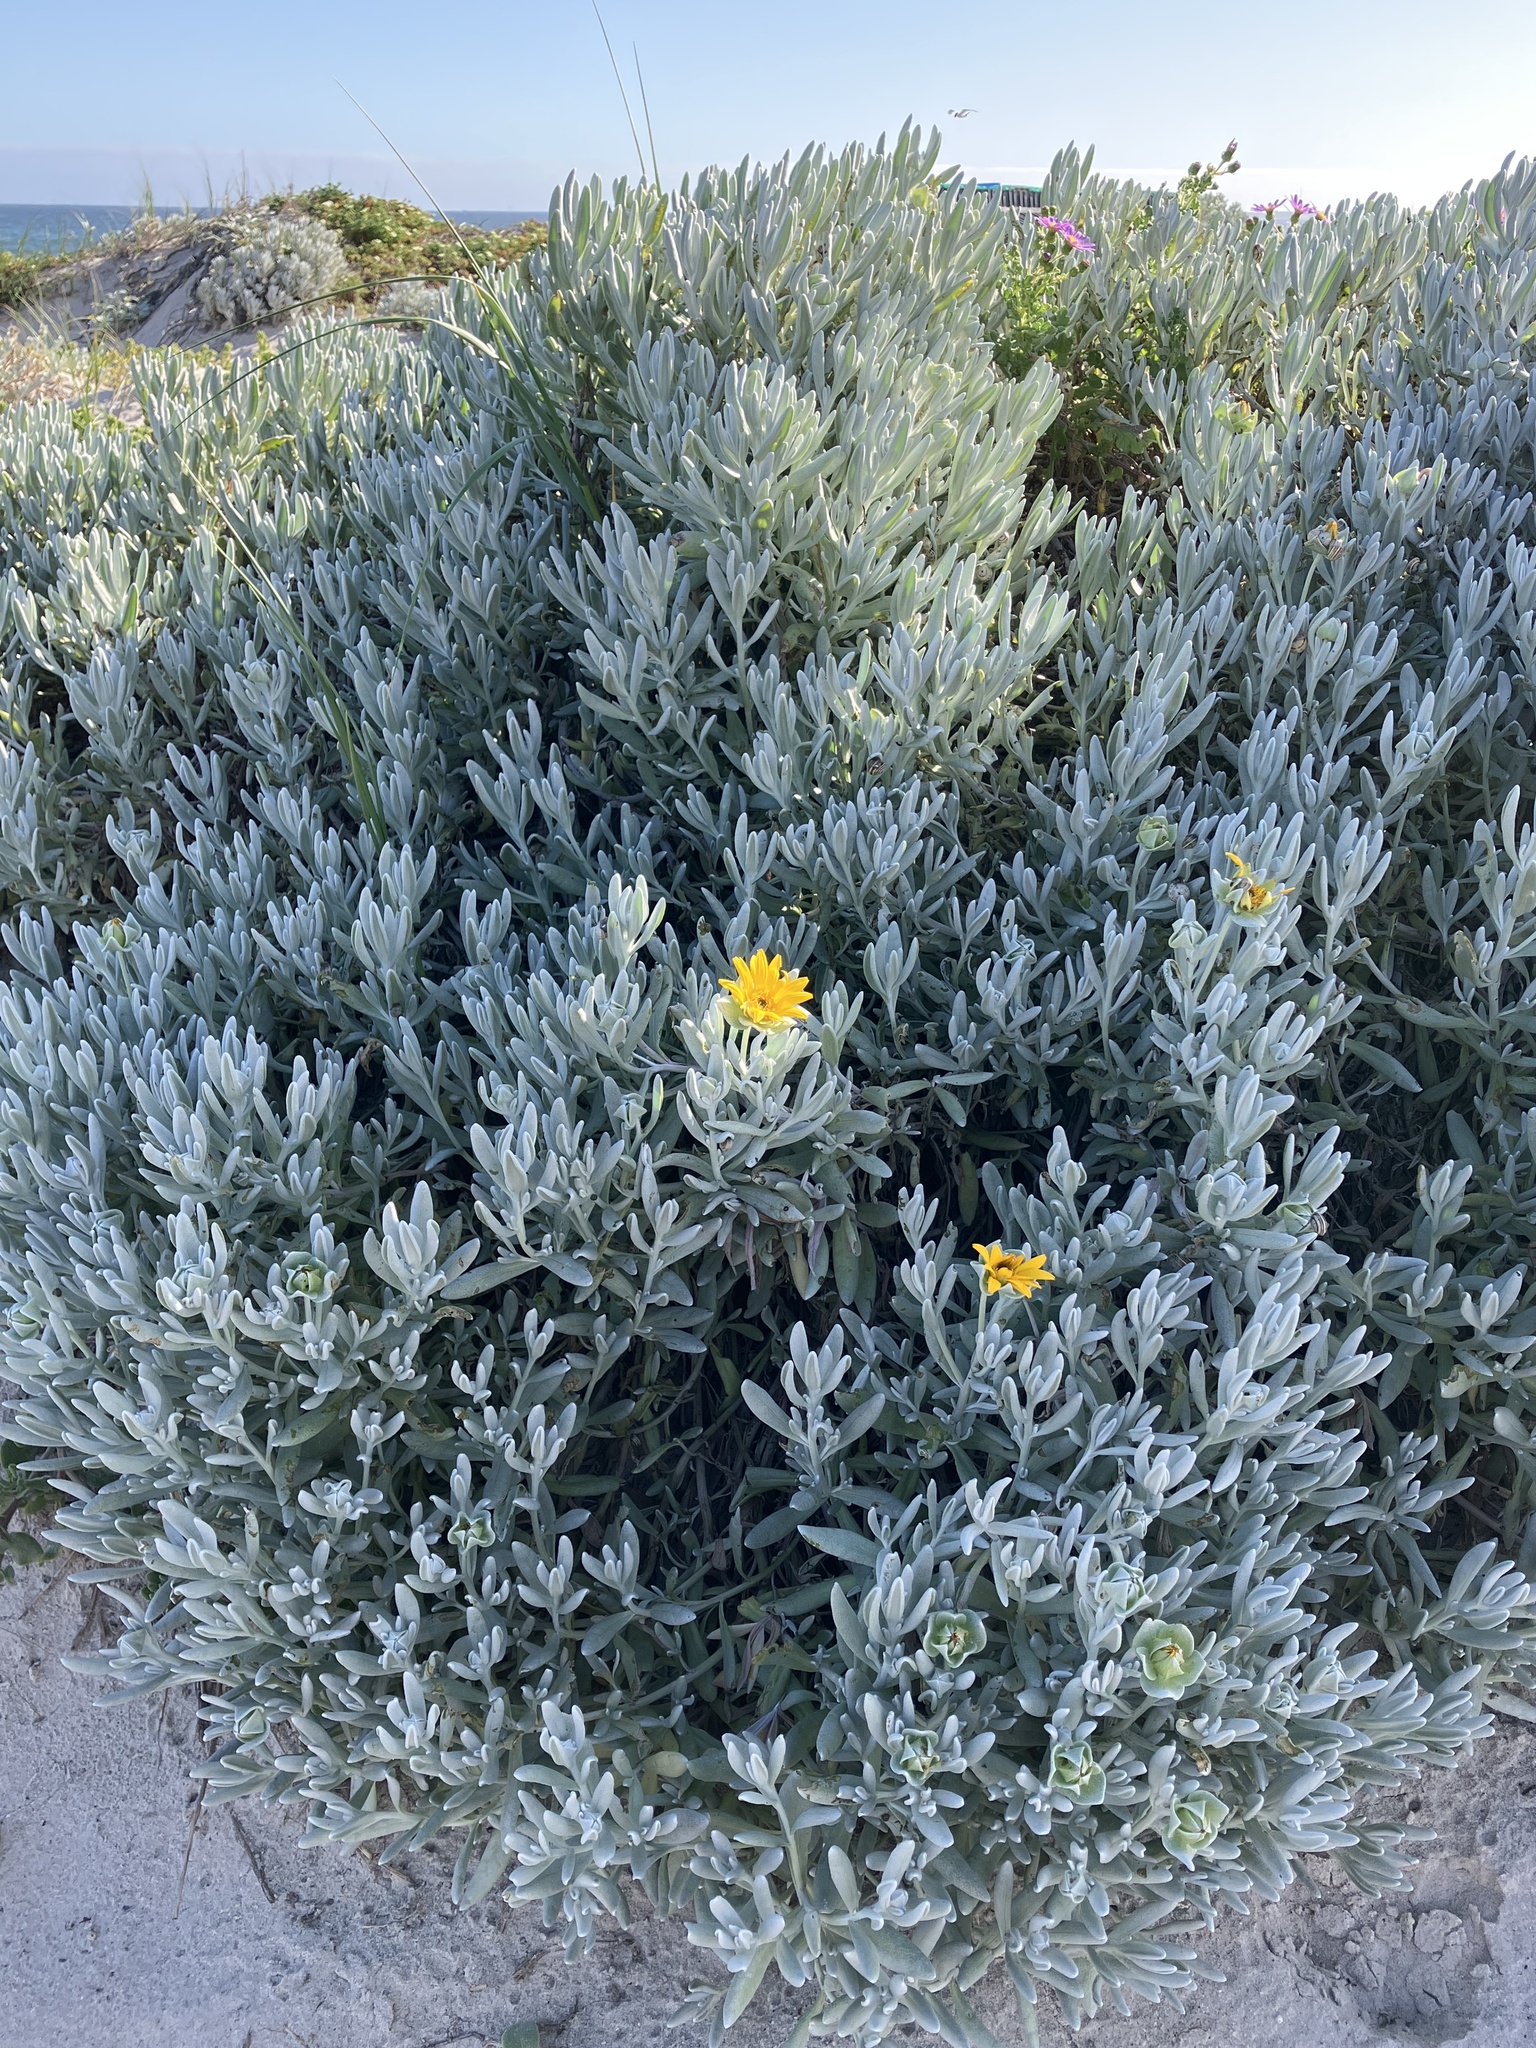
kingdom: Plantae
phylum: Tracheophyta
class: Magnoliopsida
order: Asterales
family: Asteraceae
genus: Didelta
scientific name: Didelta carnosa
